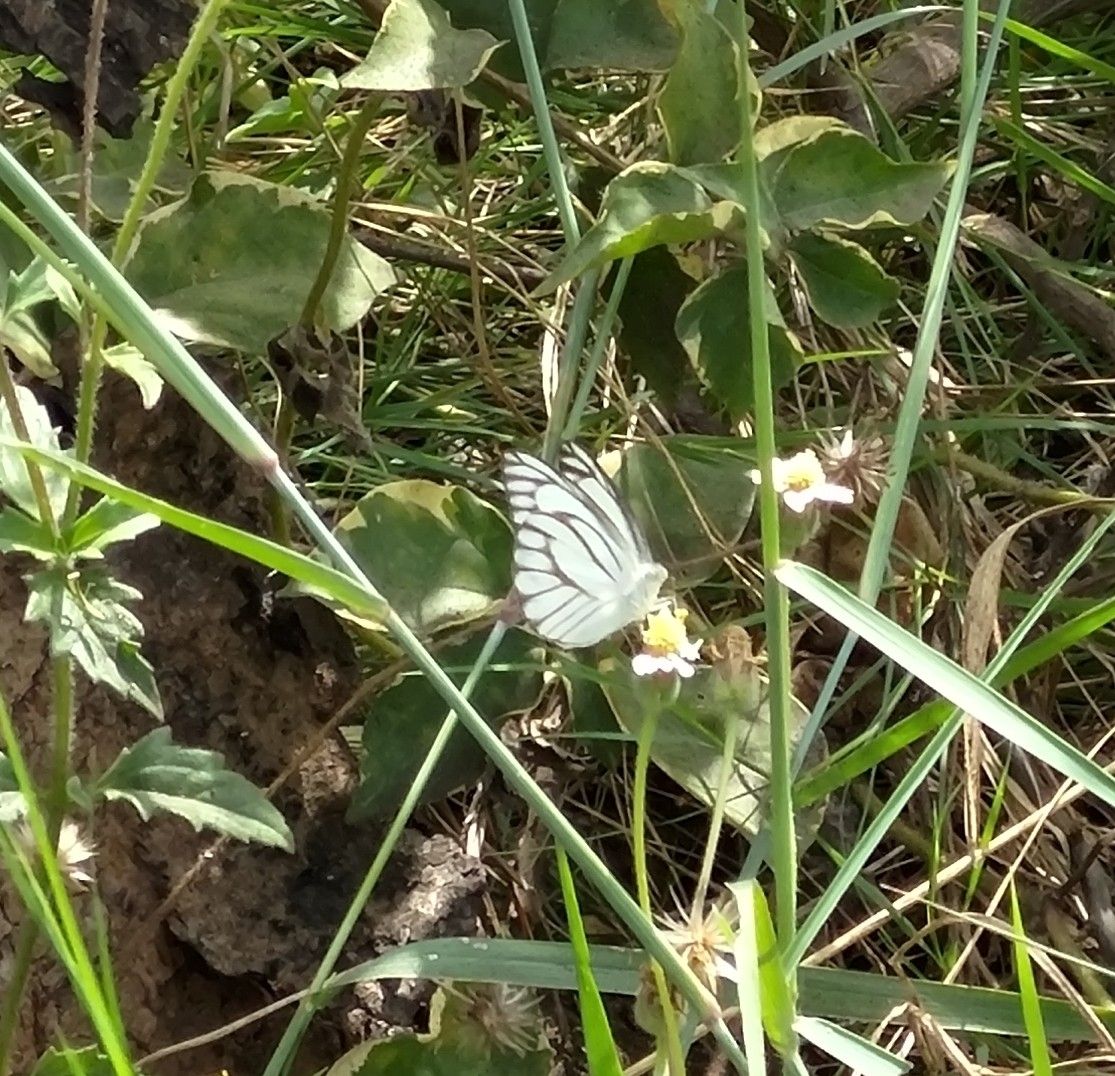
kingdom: Animalia
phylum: Arthropoda
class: Insecta
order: Lepidoptera
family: Pieridae
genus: Appias
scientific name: Appias libythea
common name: Striped albatross
